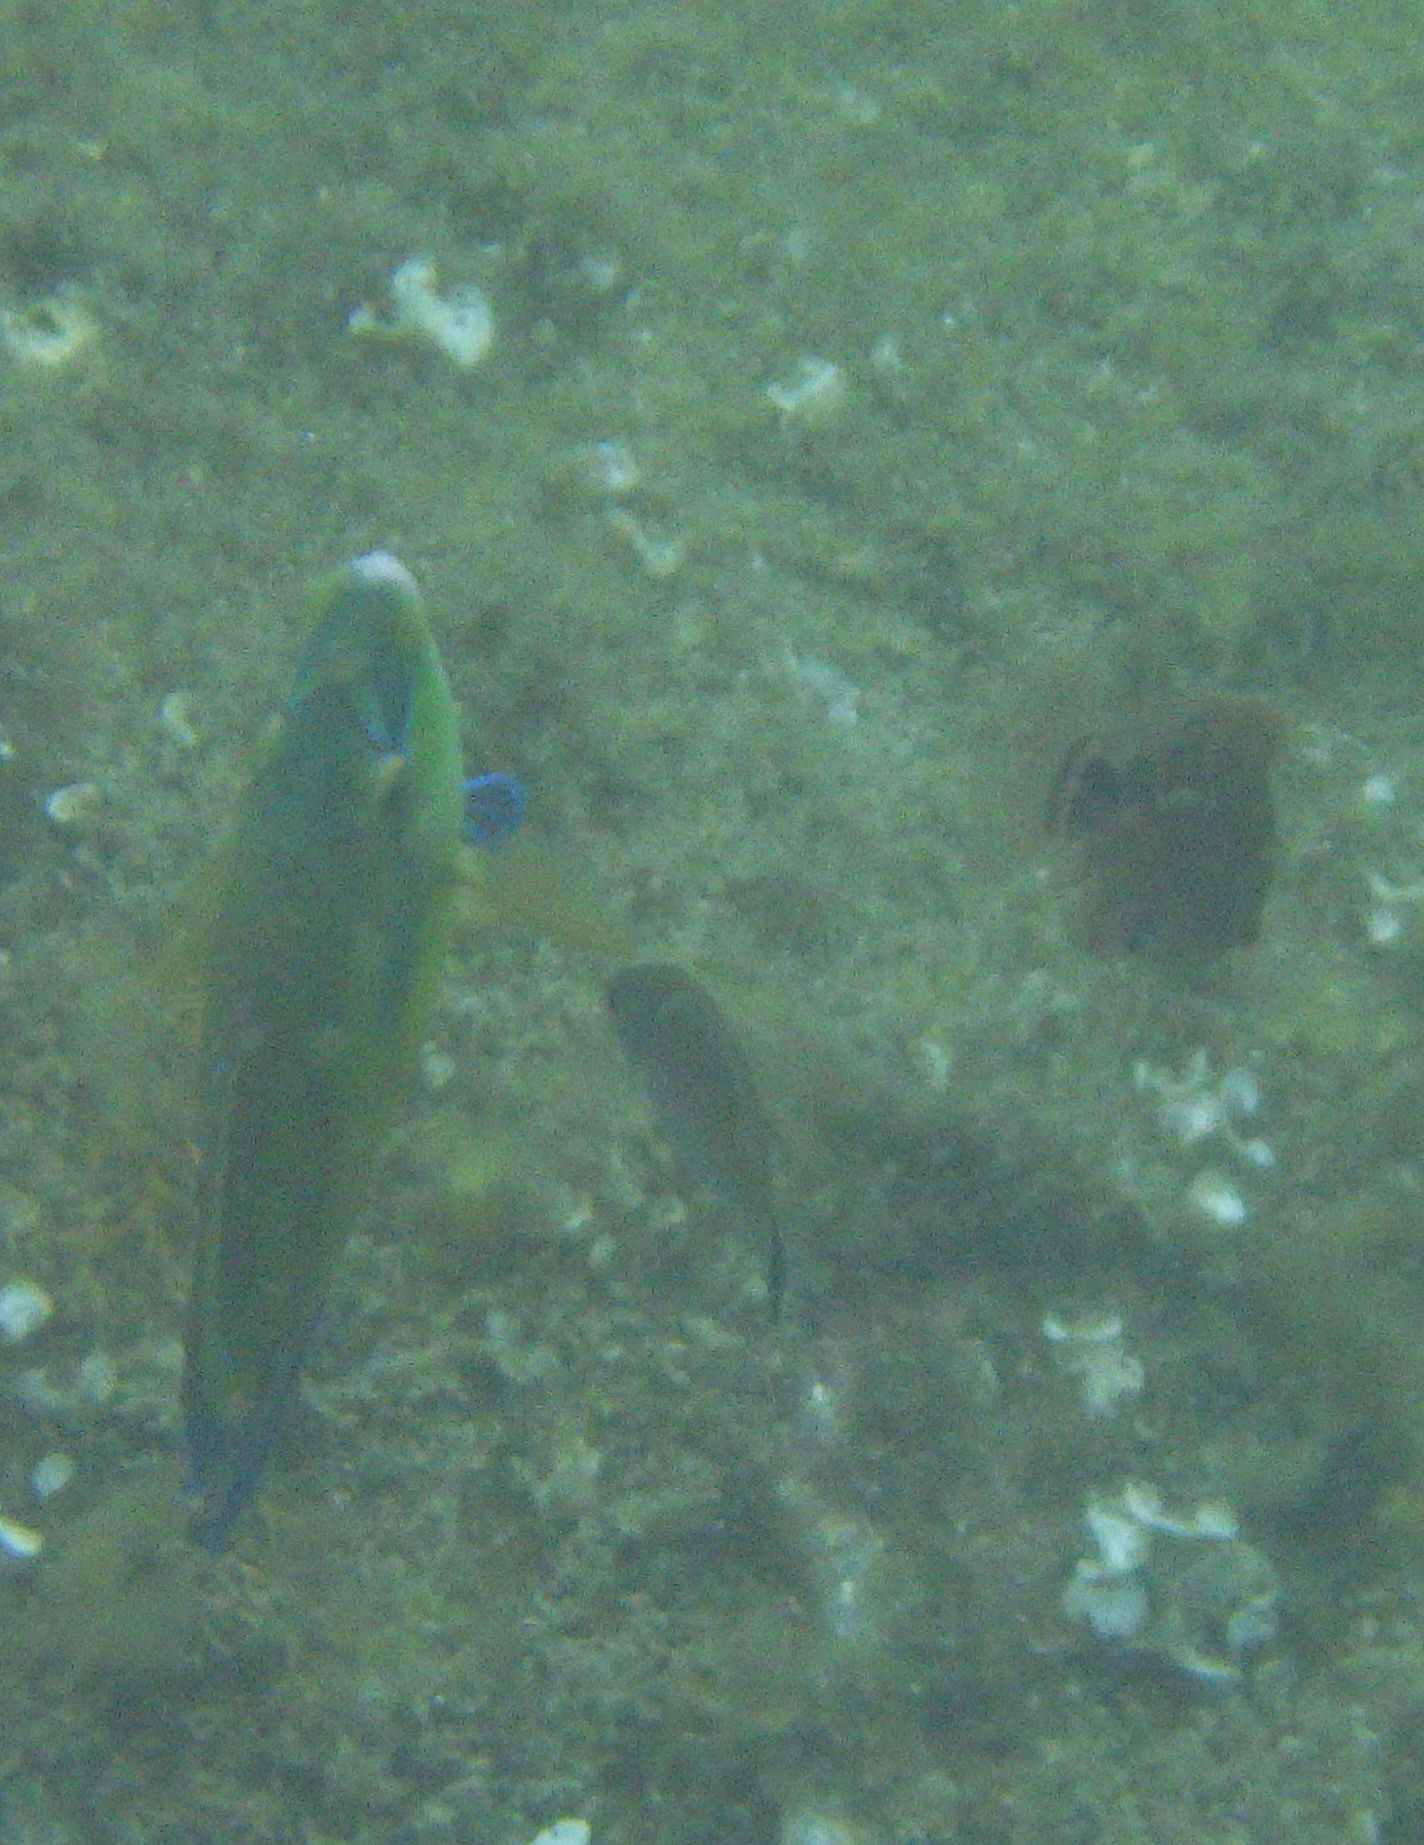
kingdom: Animalia
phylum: Chordata
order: Perciformes
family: Labridae
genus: Symphodus
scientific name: Symphodus tinca
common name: Peacock wrasse
